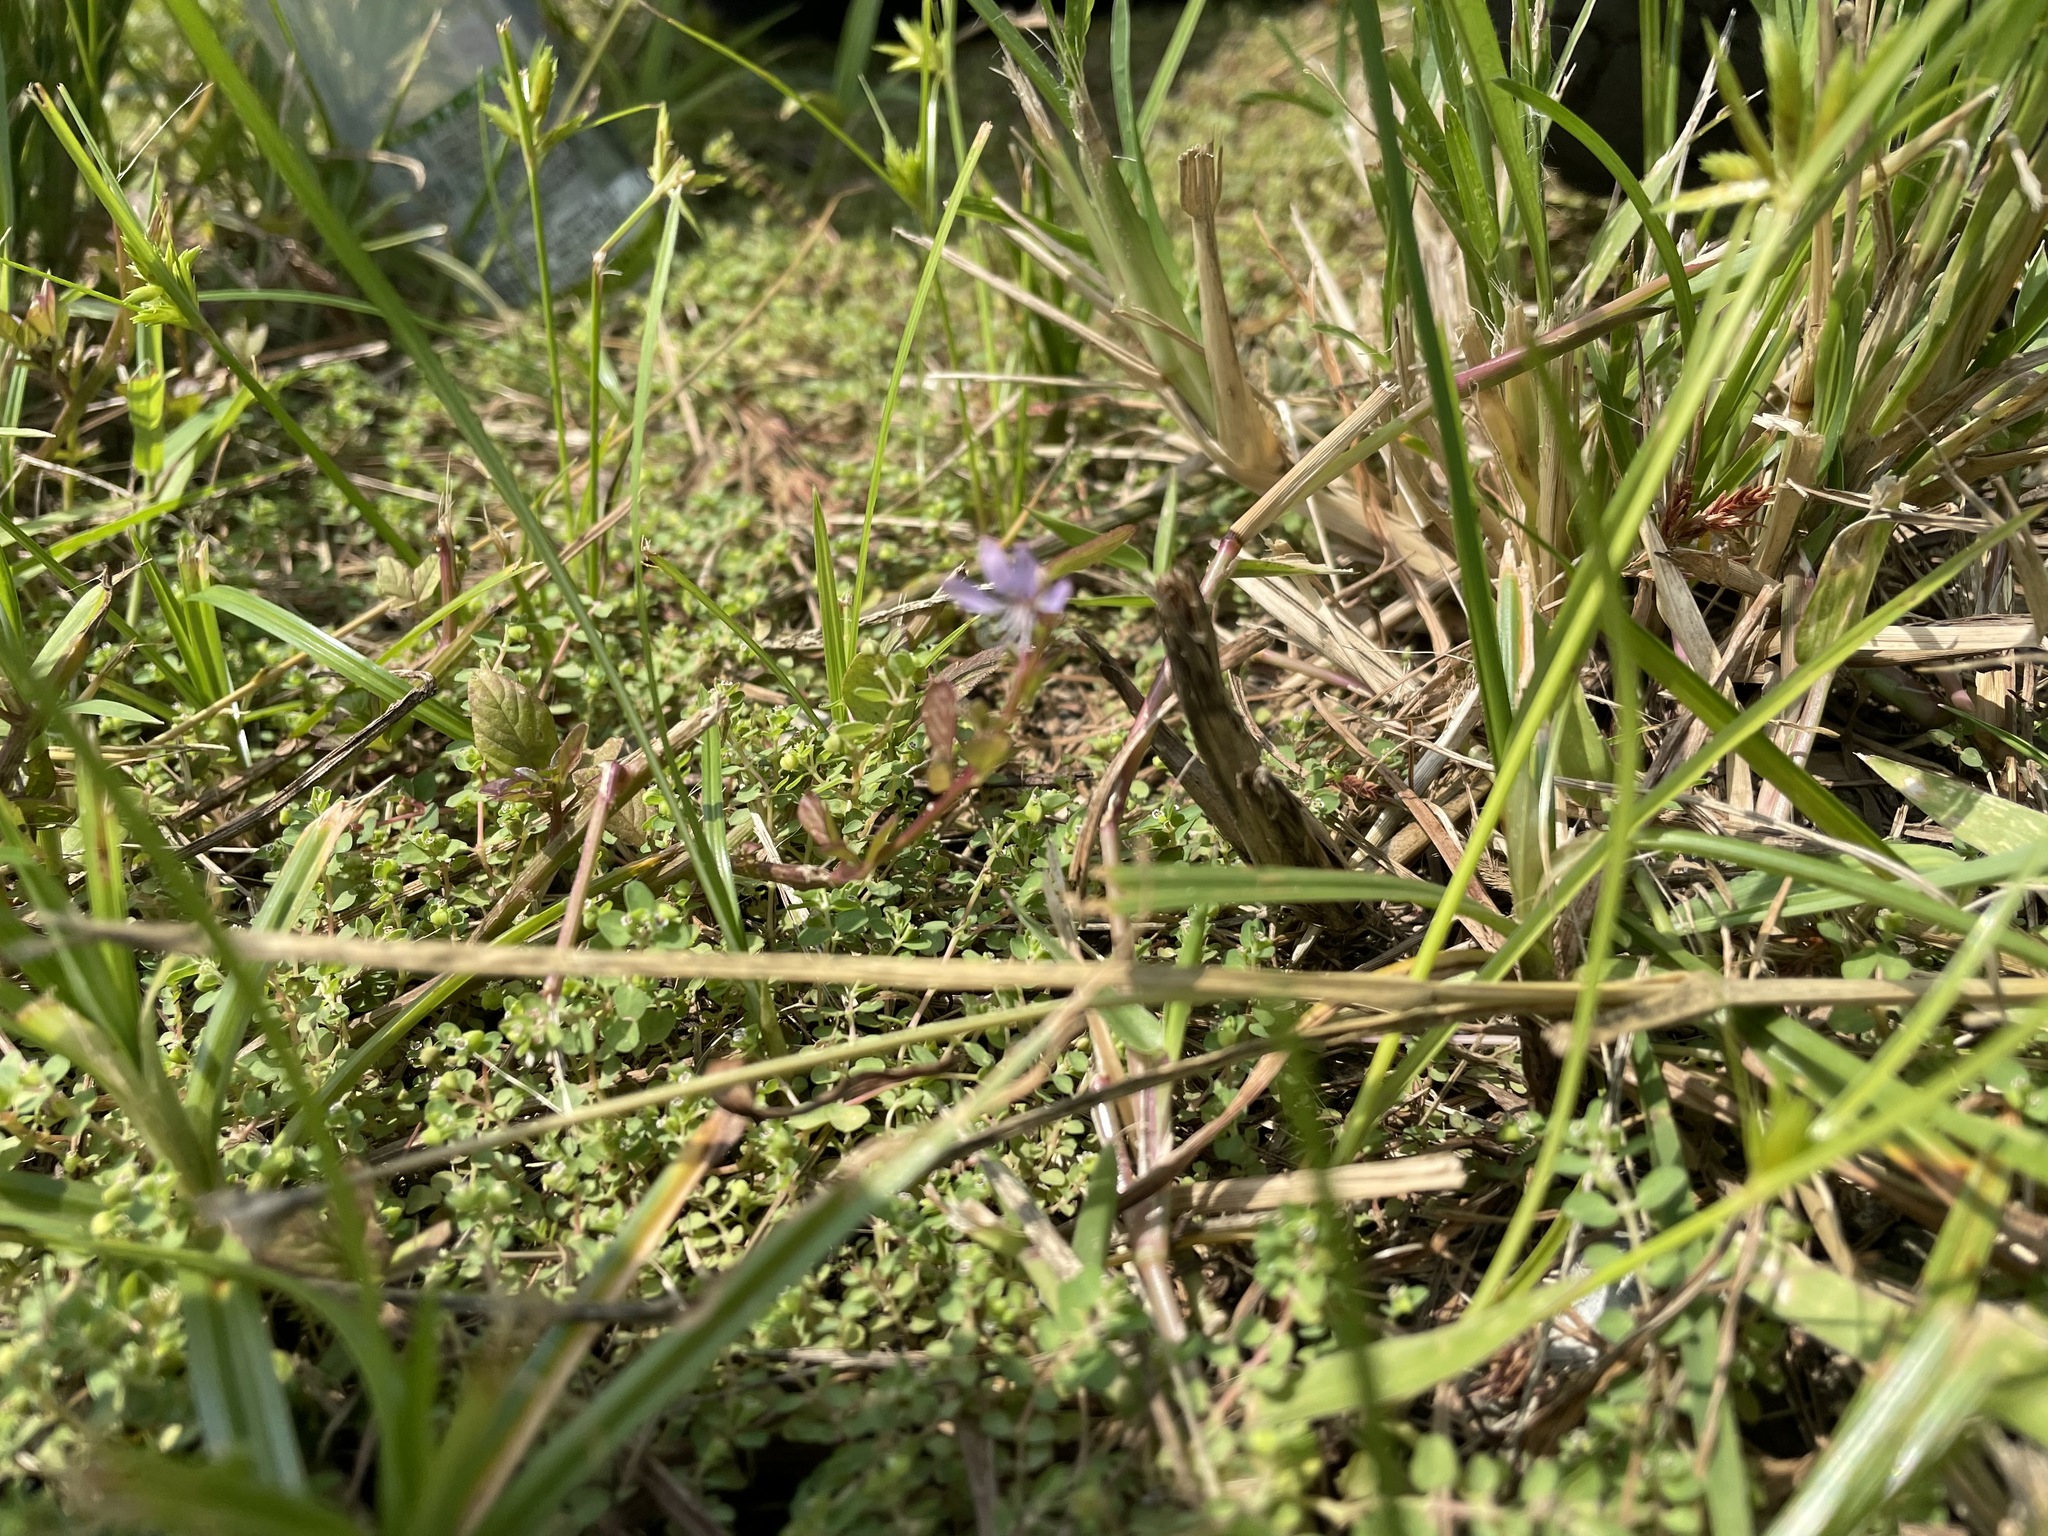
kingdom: Plantae
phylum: Tracheophyta
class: Magnoliopsida
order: Brassicales
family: Cleomaceae
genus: Sieruela
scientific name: Sieruela rutidosperma
